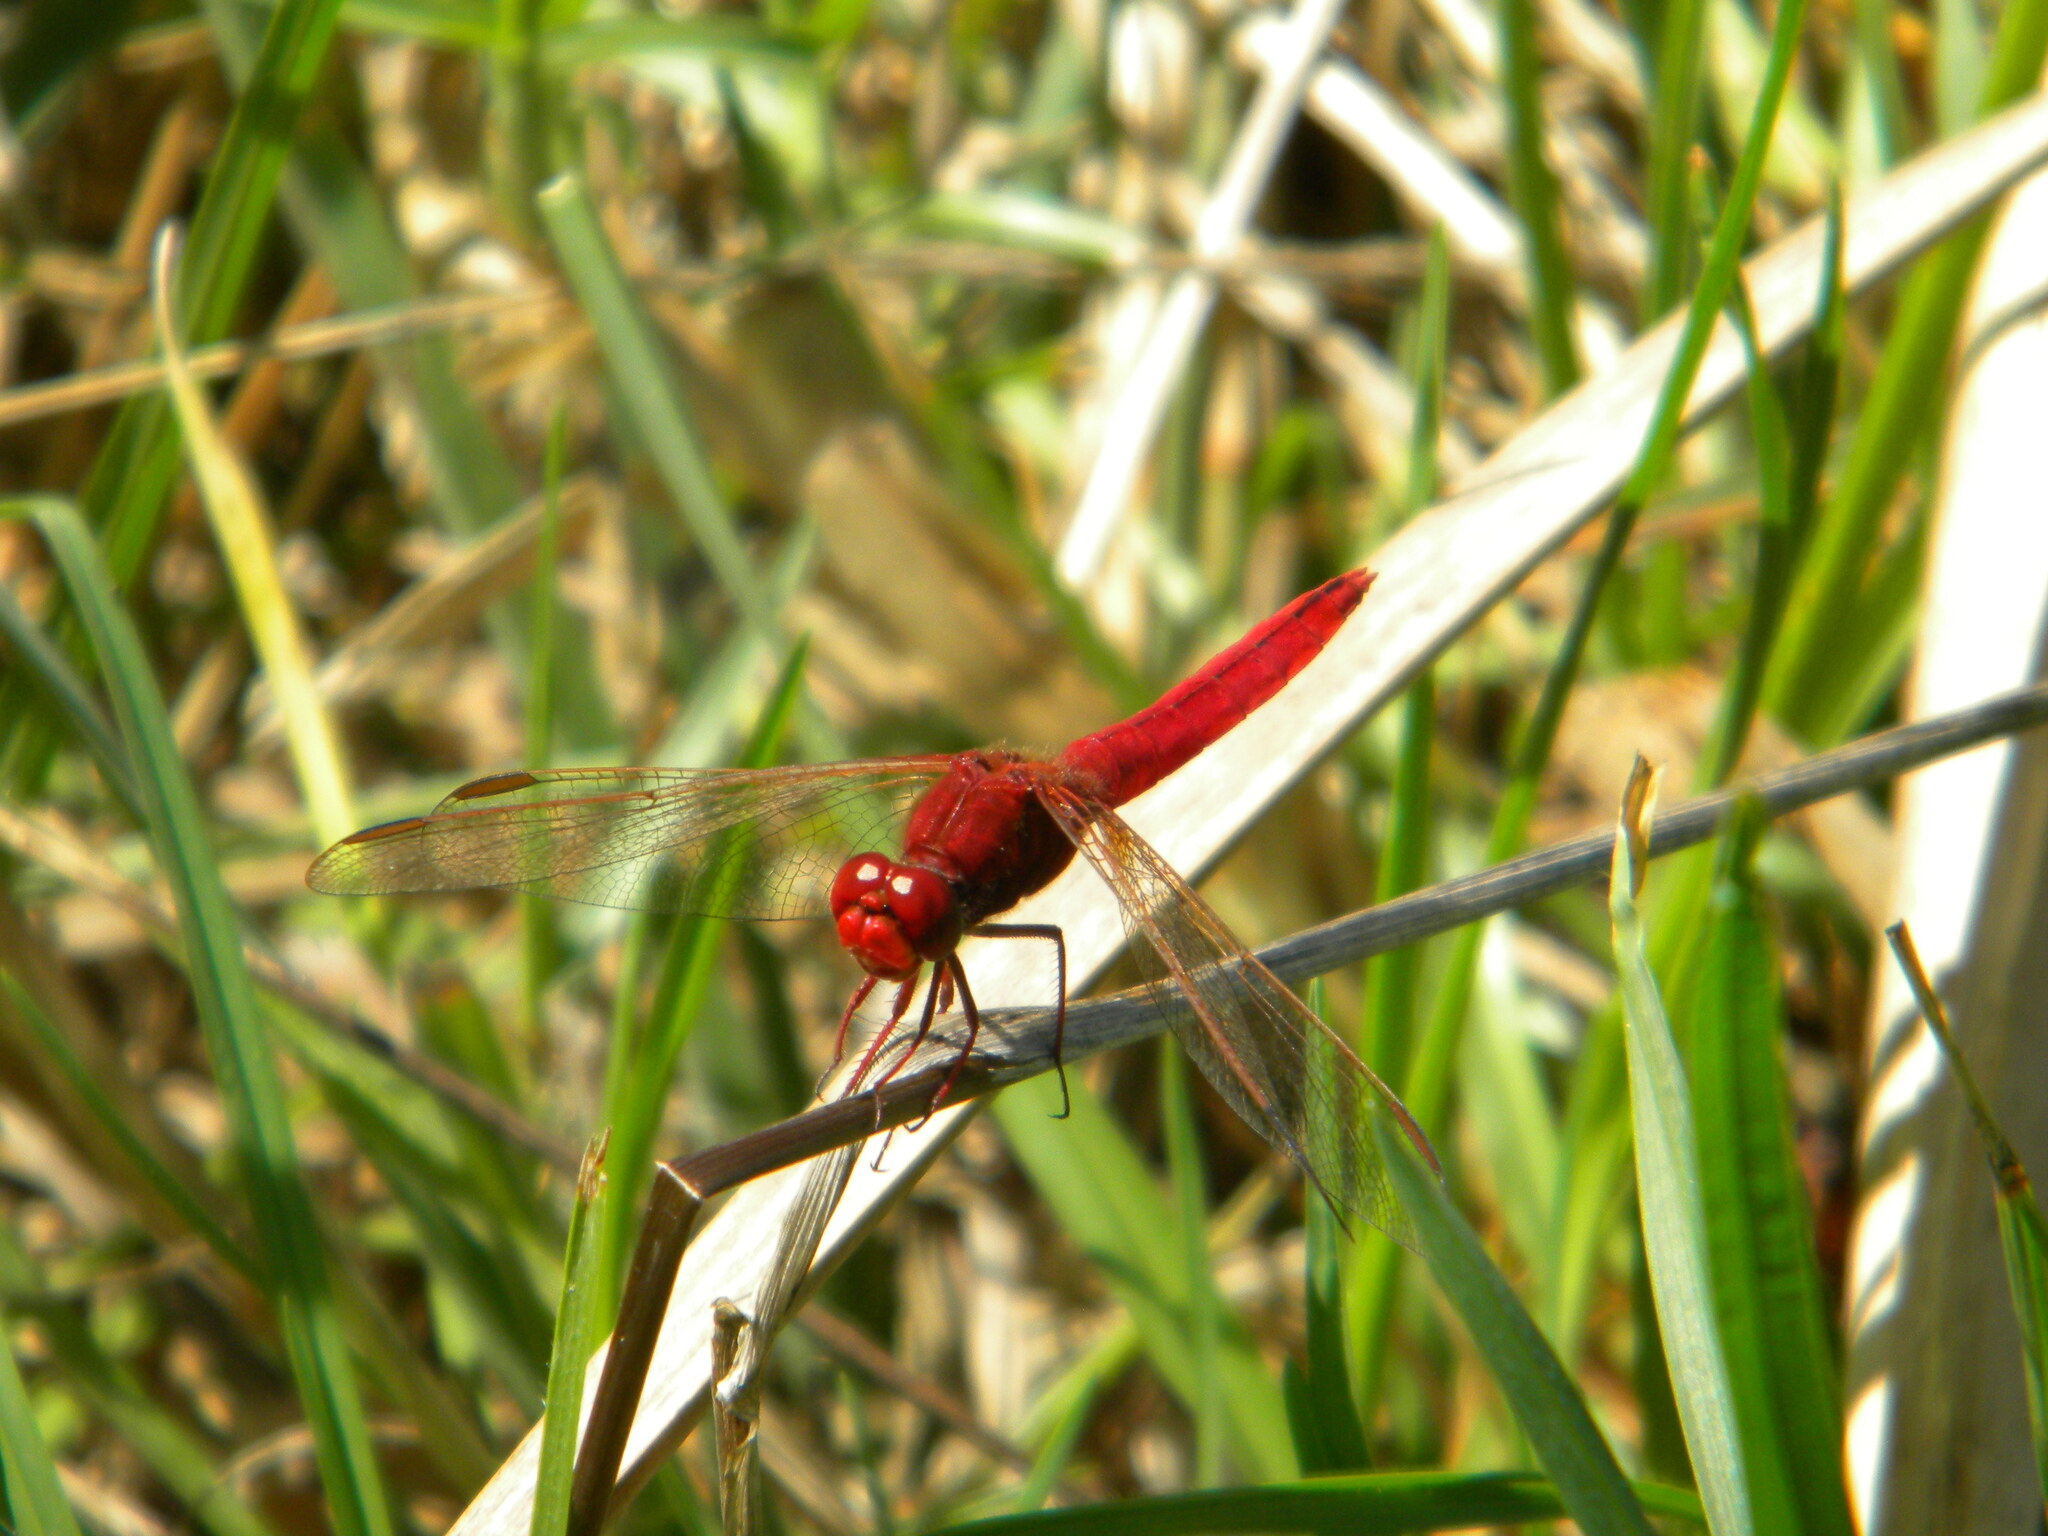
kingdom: Animalia
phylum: Arthropoda
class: Insecta
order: Odonata
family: Libellulidae
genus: Crocothemis
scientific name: Crocothemis erythraea
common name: Scarlet dragonfly
